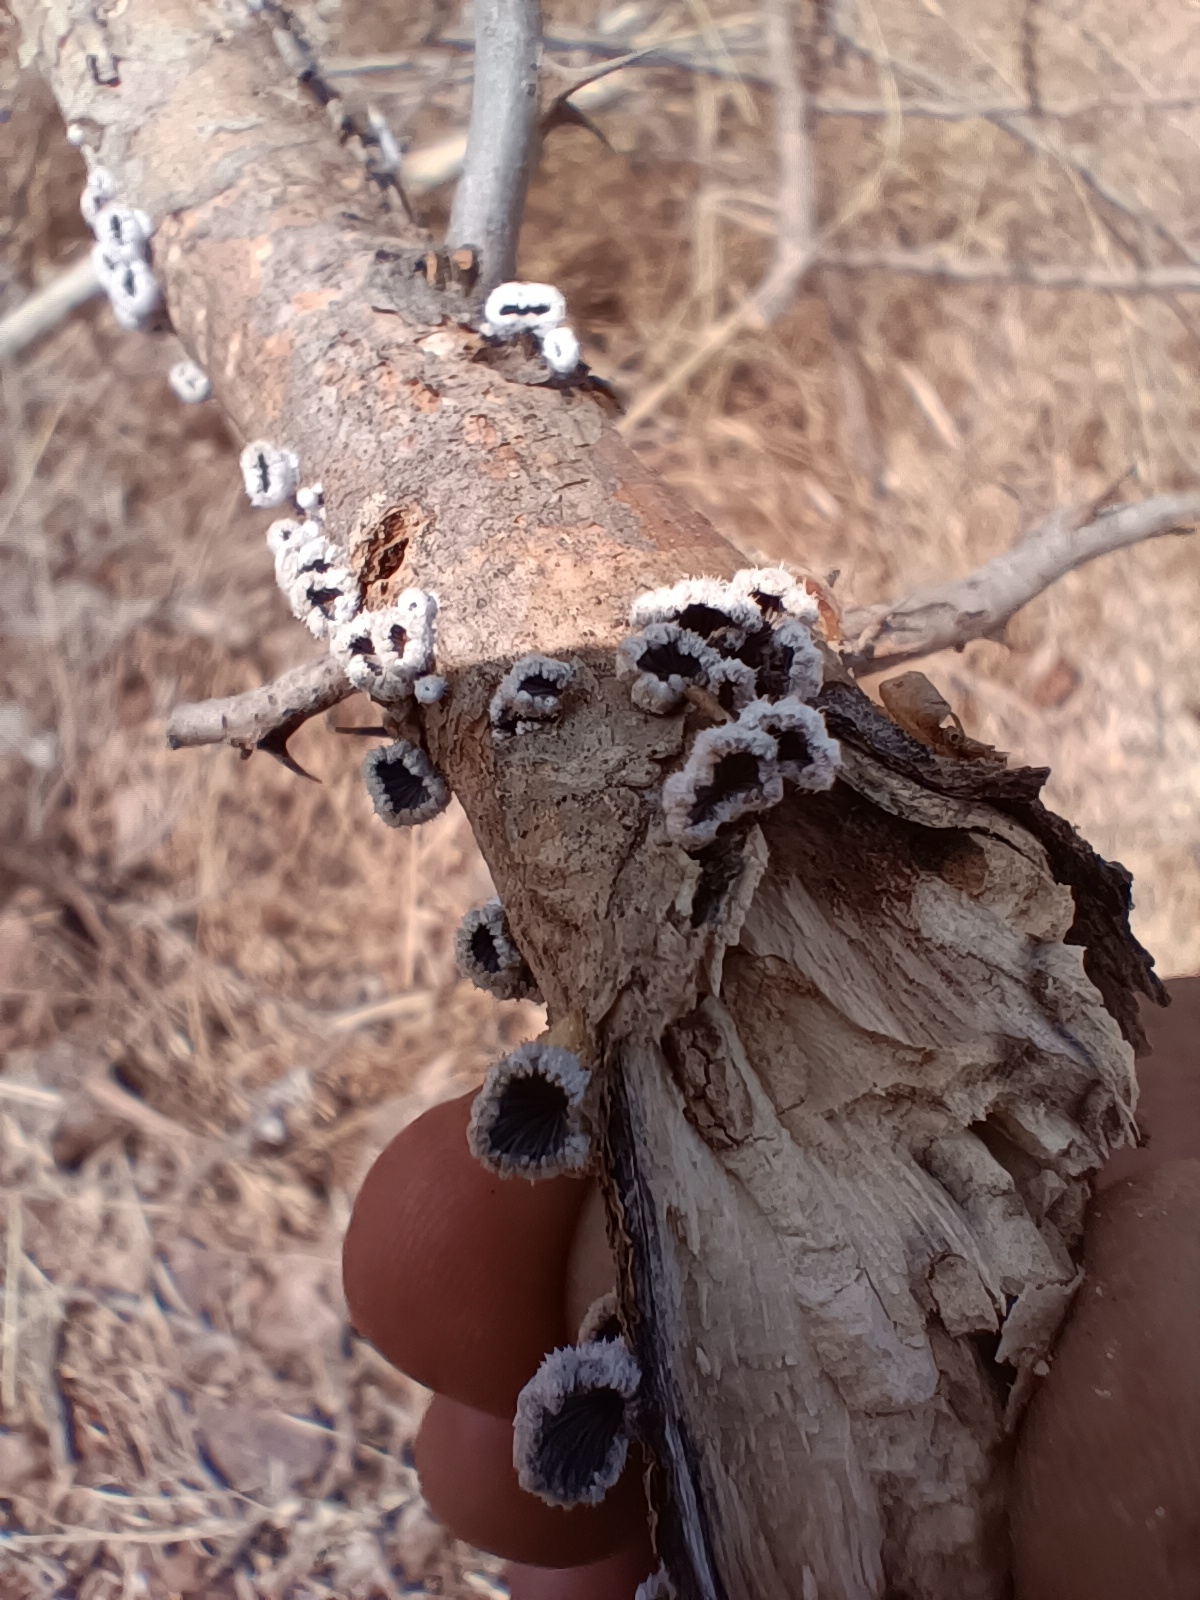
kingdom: Fungi
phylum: Basidiomycota
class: Agaricomycetes
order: Agaricales
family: Schizophyllaceae
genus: Schizophyllum
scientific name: Schizophyllum commune
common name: Common porecrust
